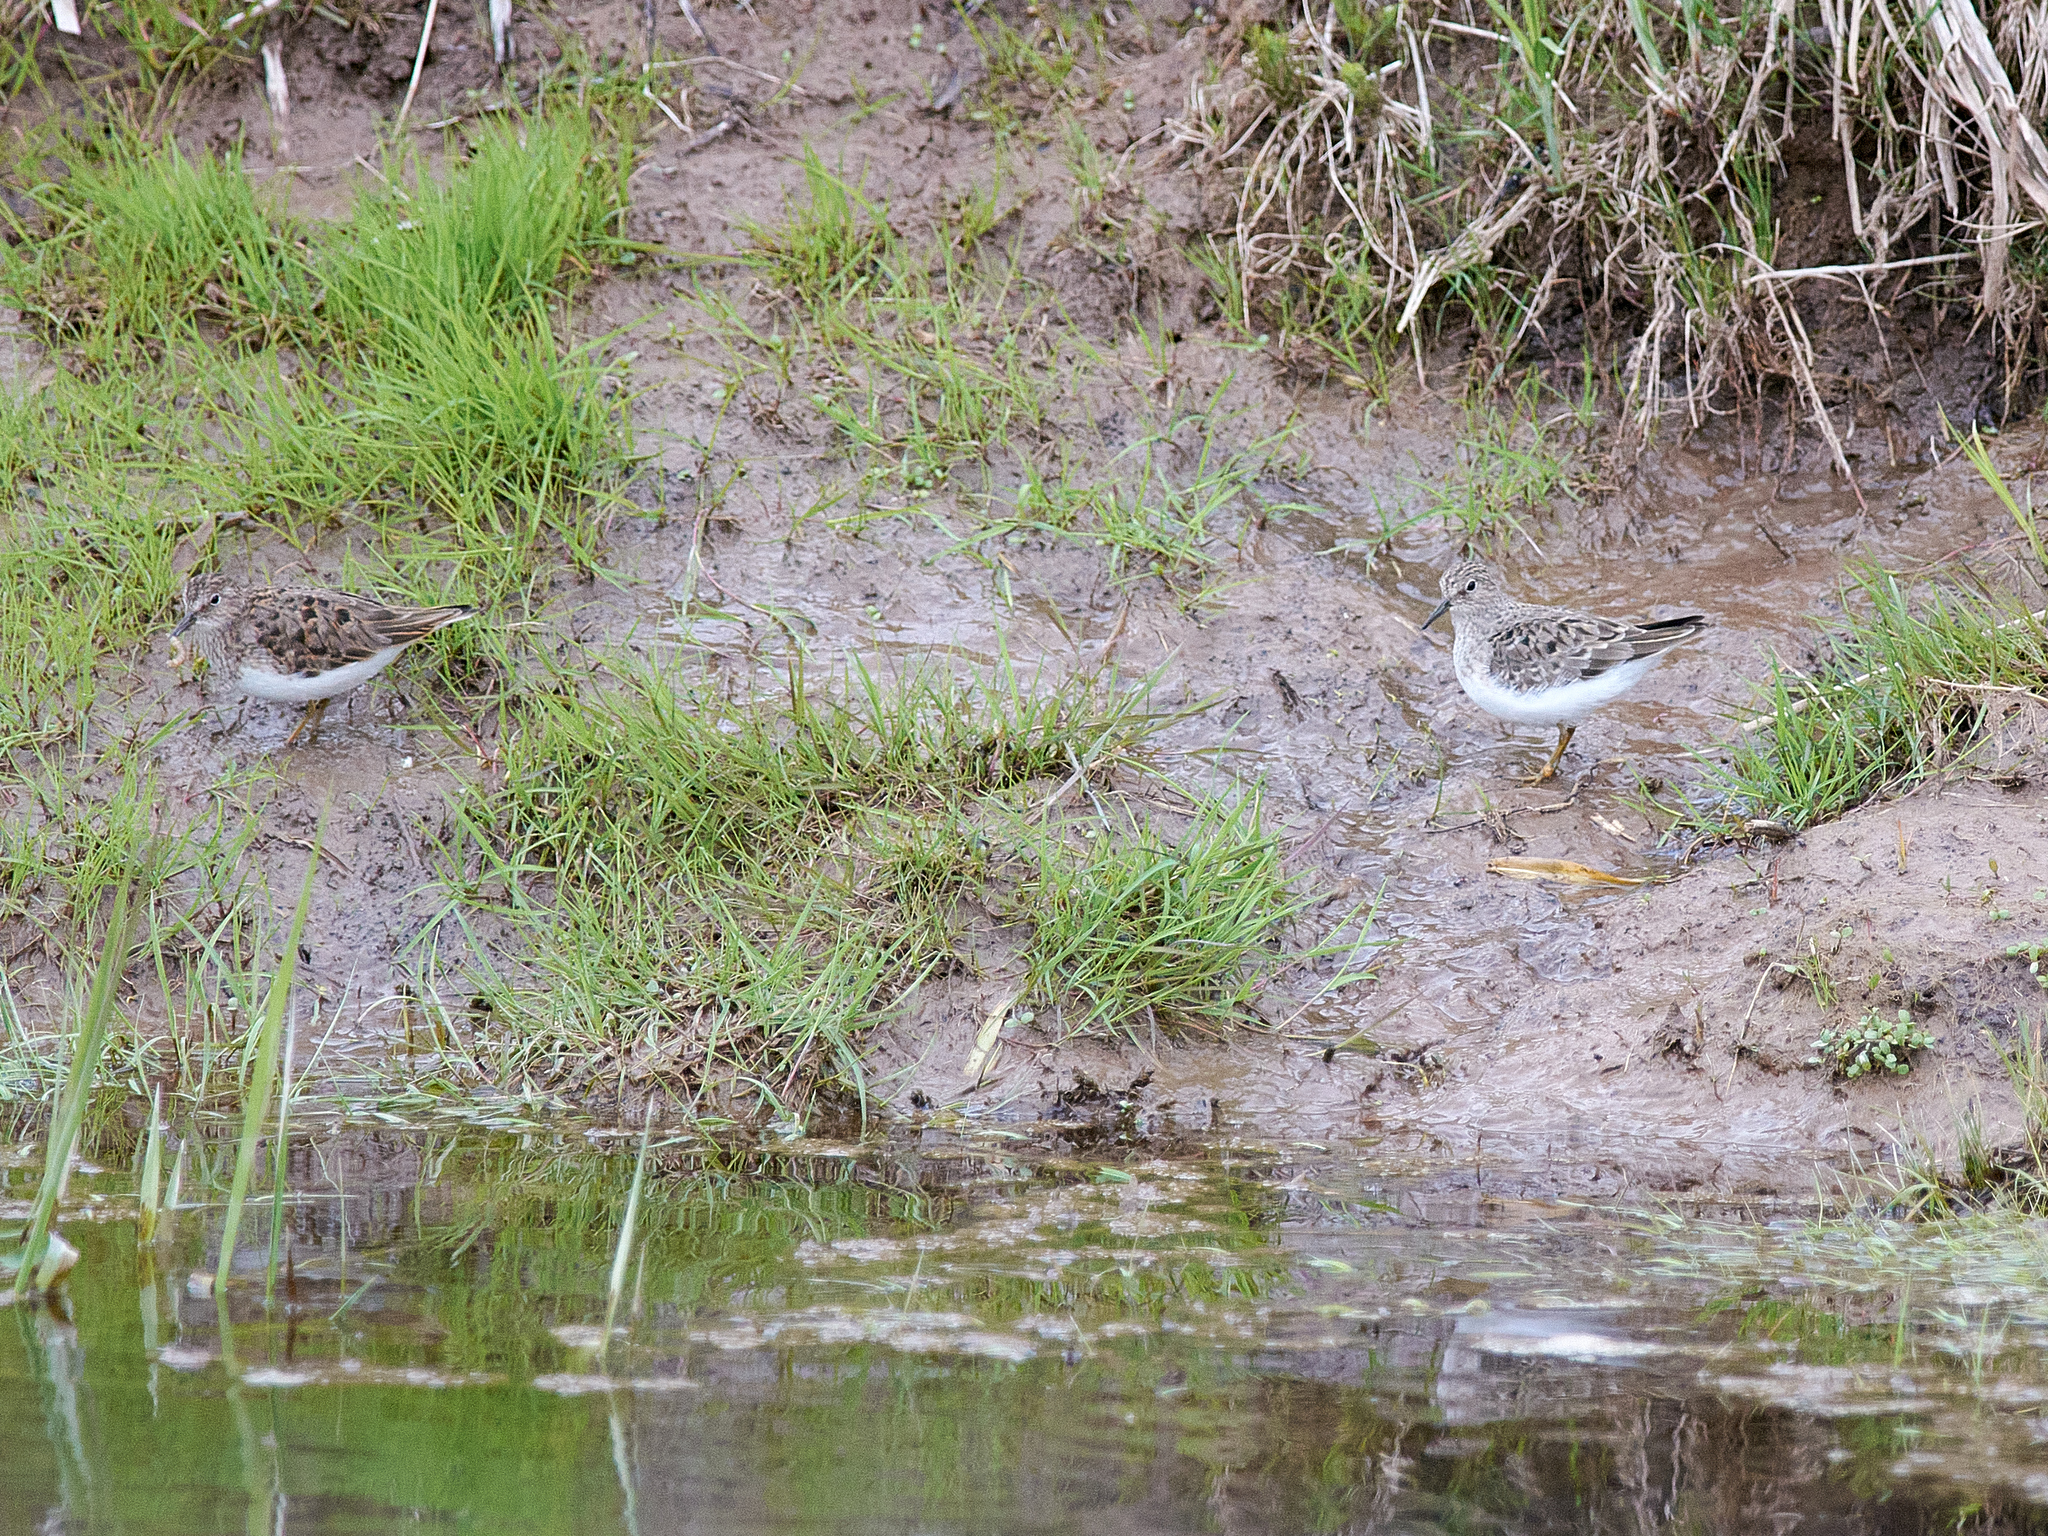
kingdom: Animalia
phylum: Chordata
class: Aves
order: Charadriiformes
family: Scolopacidae
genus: Calidris
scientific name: Calidris temminckii
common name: Temminck's stint
